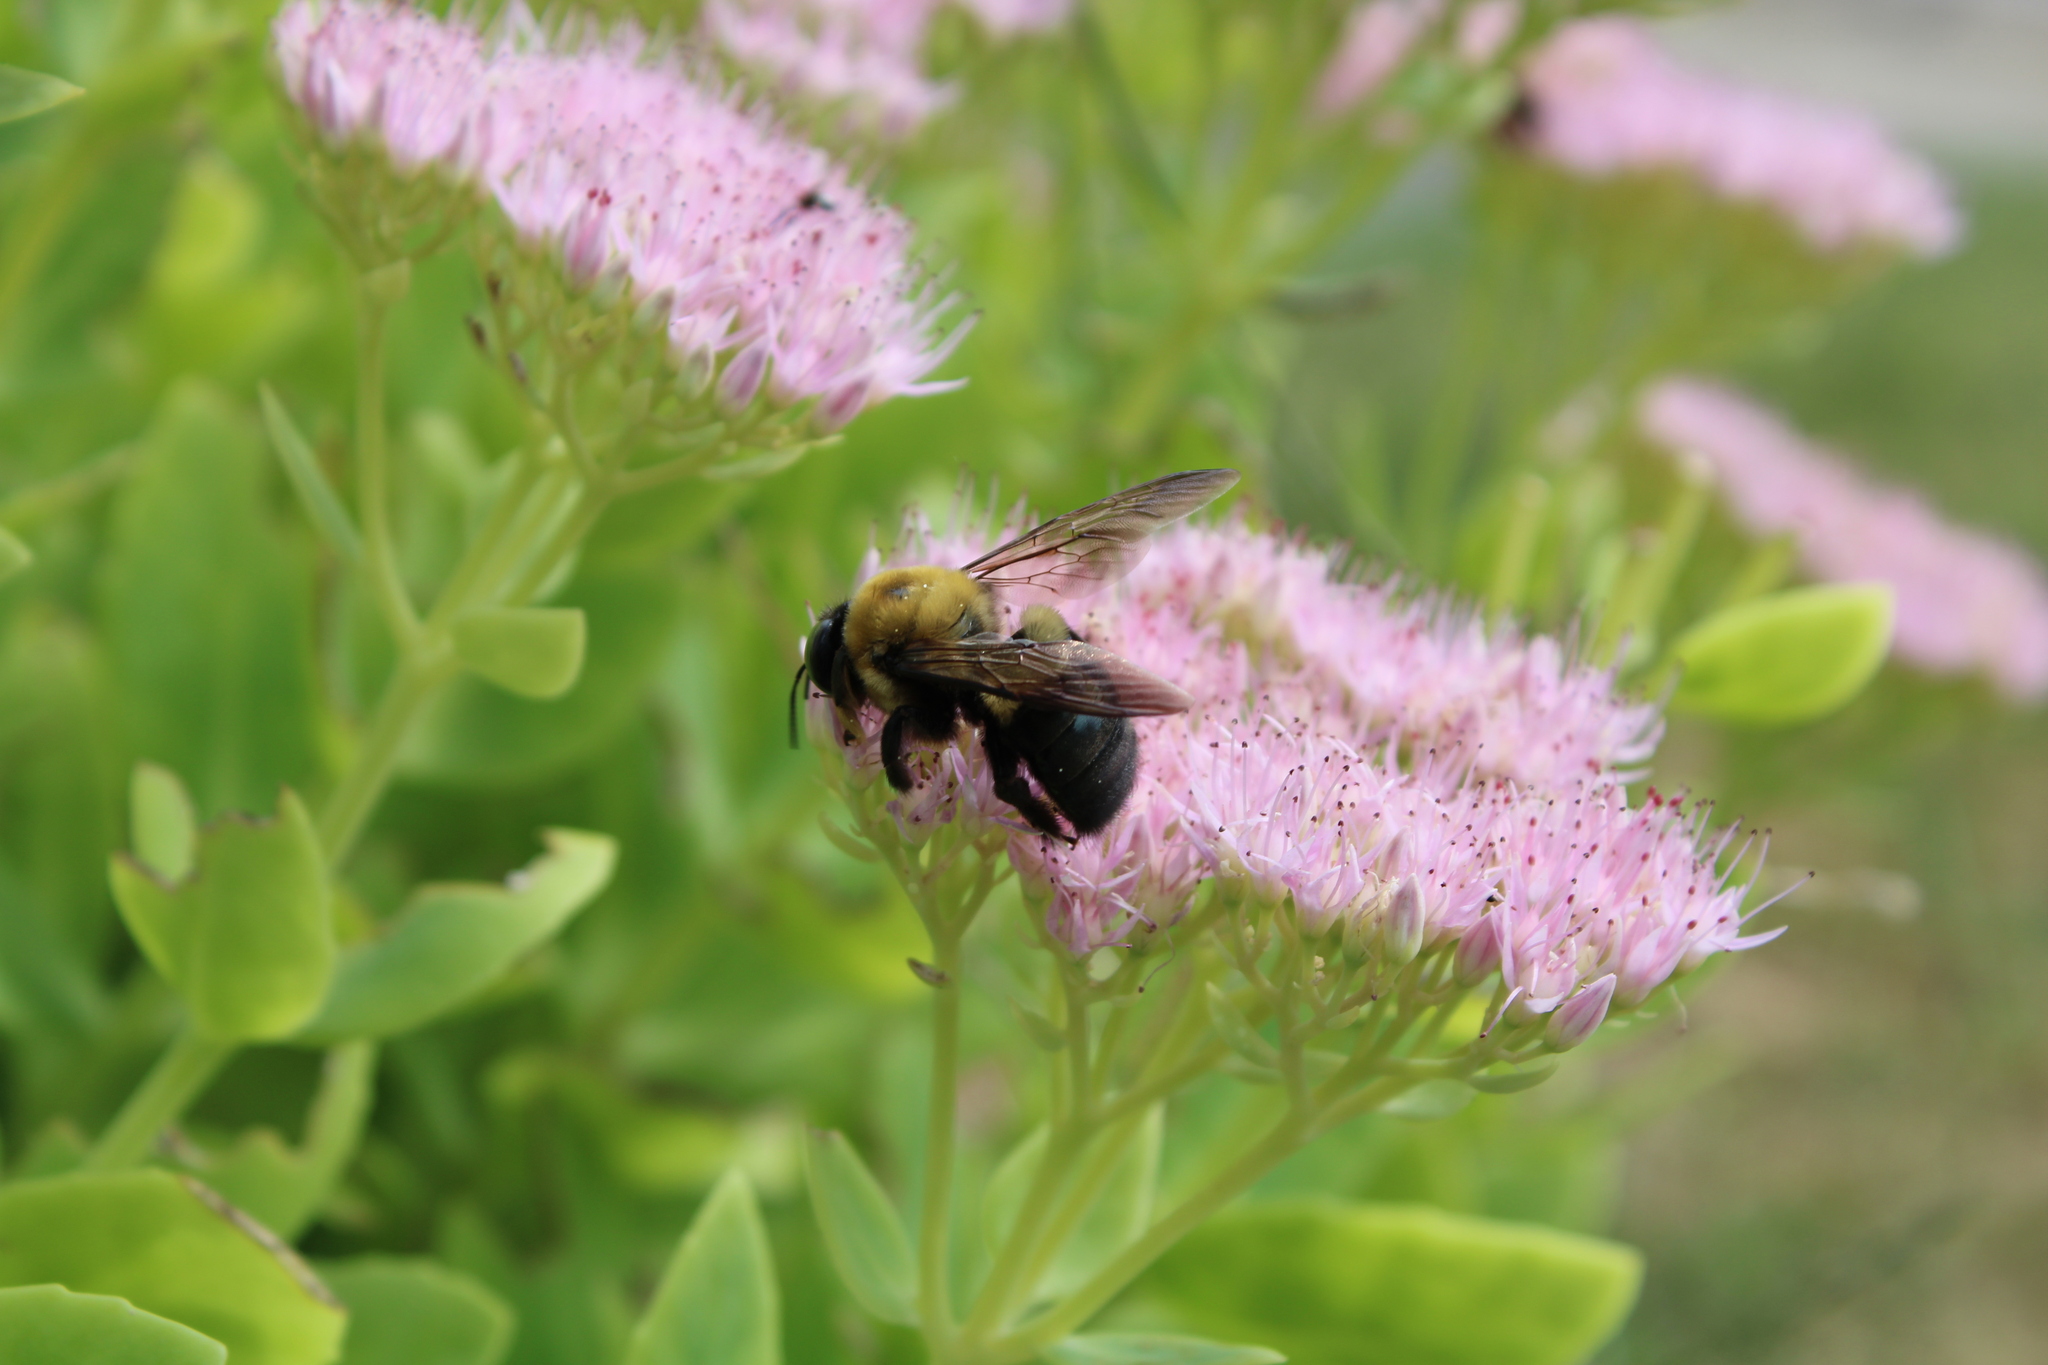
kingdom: Animalia
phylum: Arthropoda
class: Insecta
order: Hymenoptera
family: Apidae
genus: Xylocopa
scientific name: Xylocopa virginica
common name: Carpenter bee
